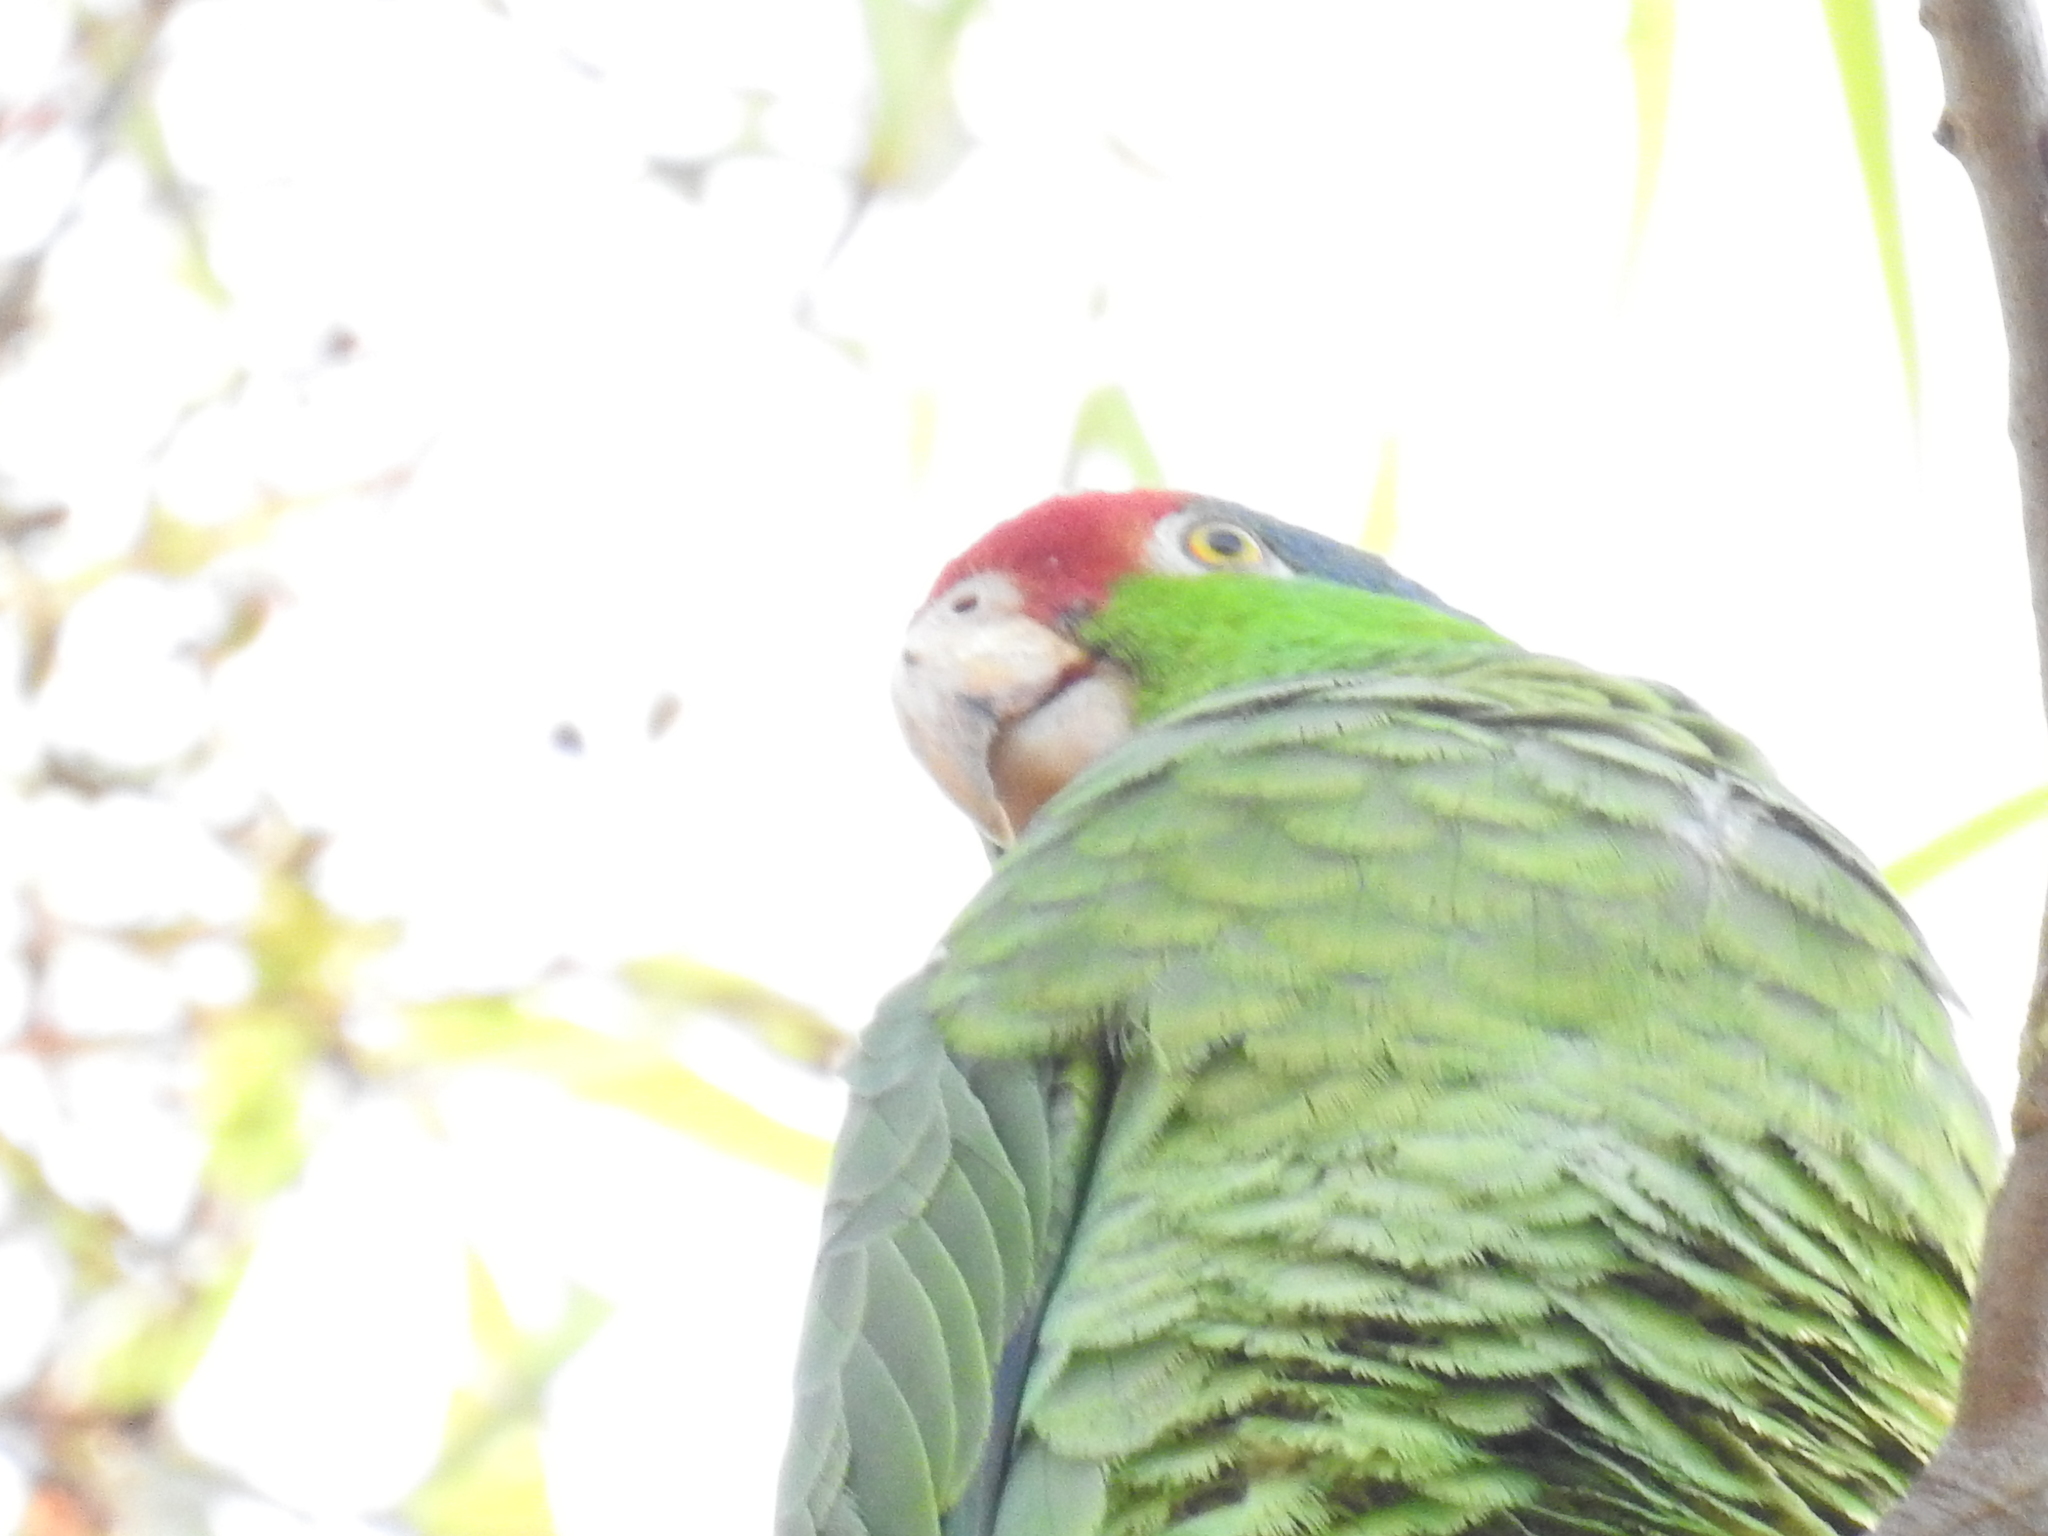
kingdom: Animalia
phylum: Chordata
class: Aves
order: Psittaciformes
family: Psittacidae
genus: Amazona
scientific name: Amazona viridigenalis
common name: Red-crowned amazon
